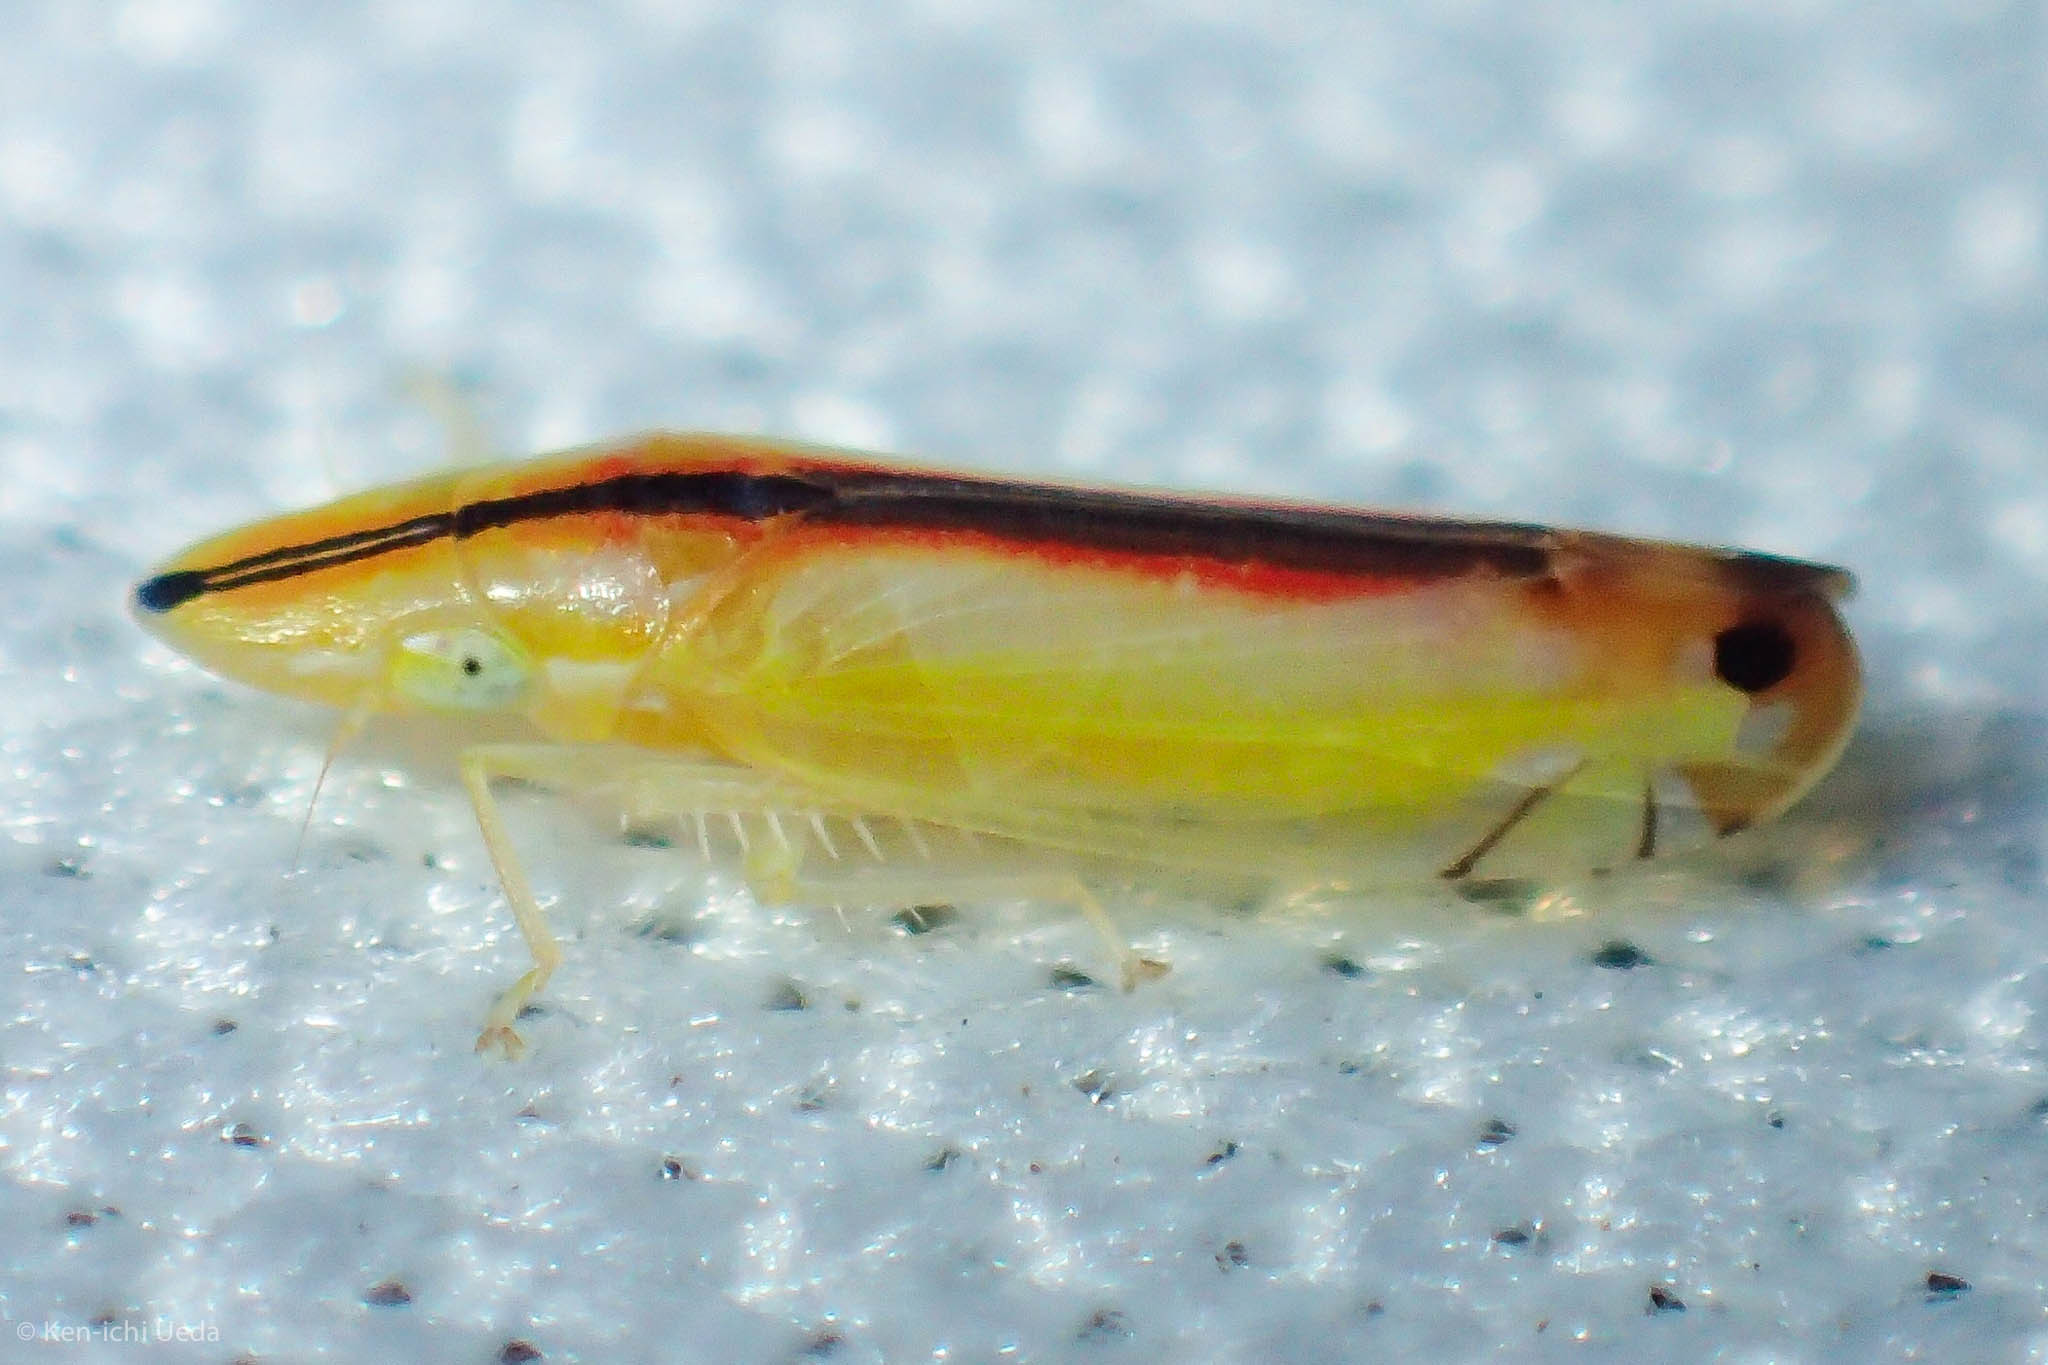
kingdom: Animalia
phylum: Arthropoda
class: Insecta
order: Hemiptera
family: Cicadellidae
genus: Sophonia
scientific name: Sophonia orientalis
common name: Two-spotted leafhopper
